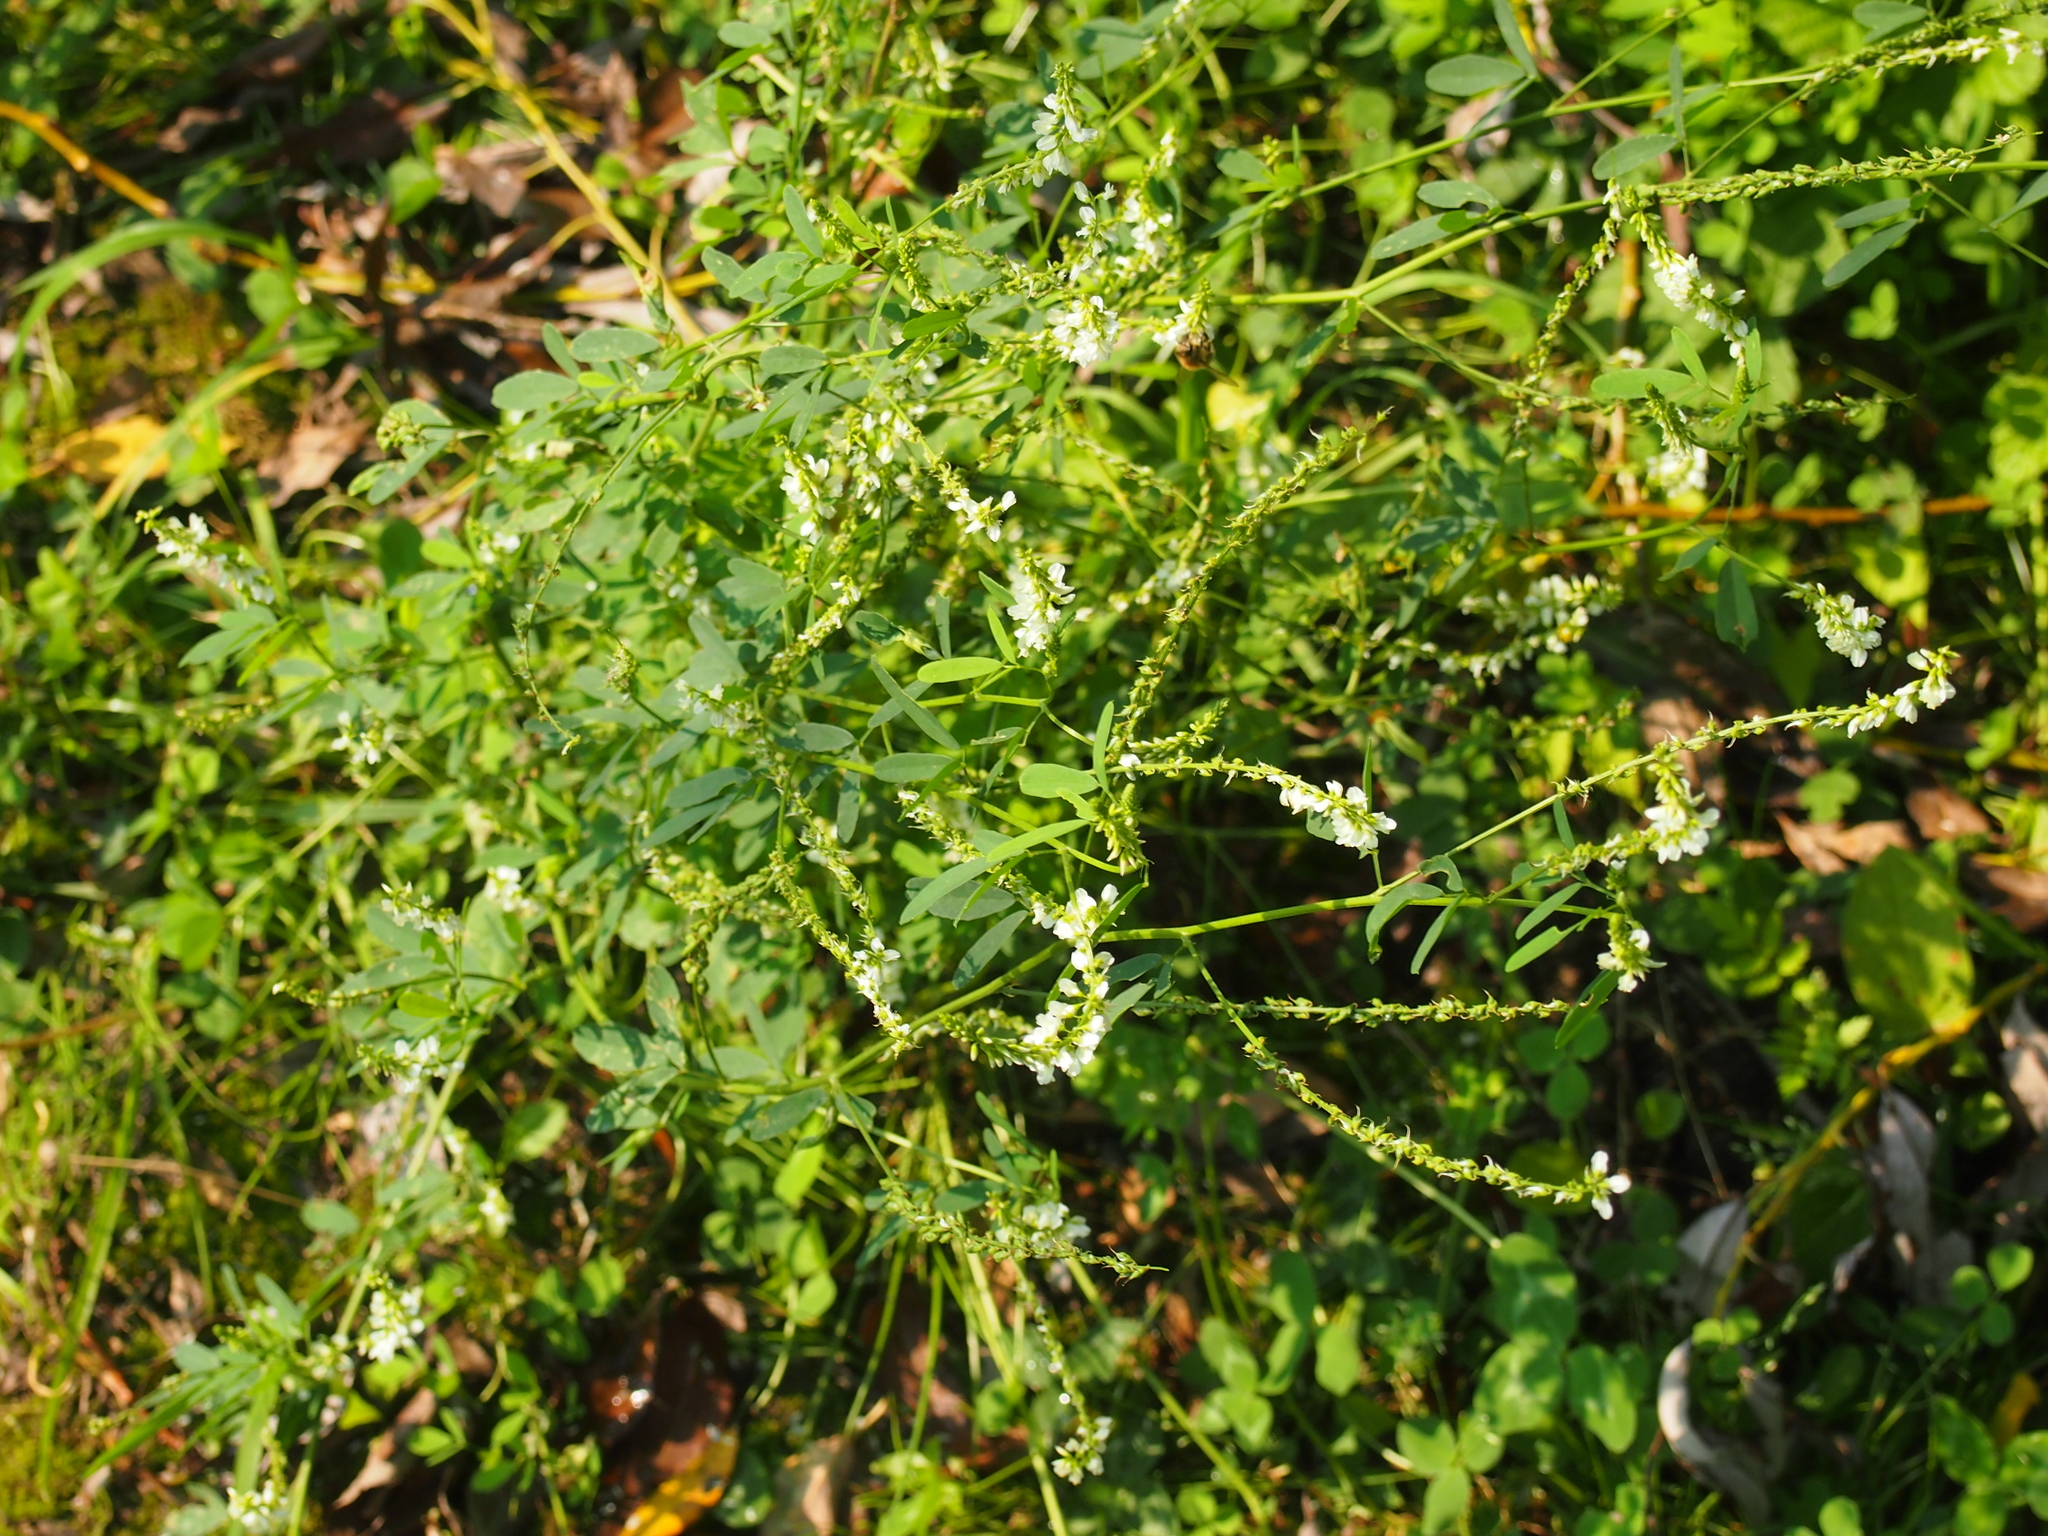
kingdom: Plantae
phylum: Tracheophyta
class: Magnoliopsida
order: Fabales
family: Fabaceae
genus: Melilotus
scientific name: Melilotus albus
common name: White melilot
